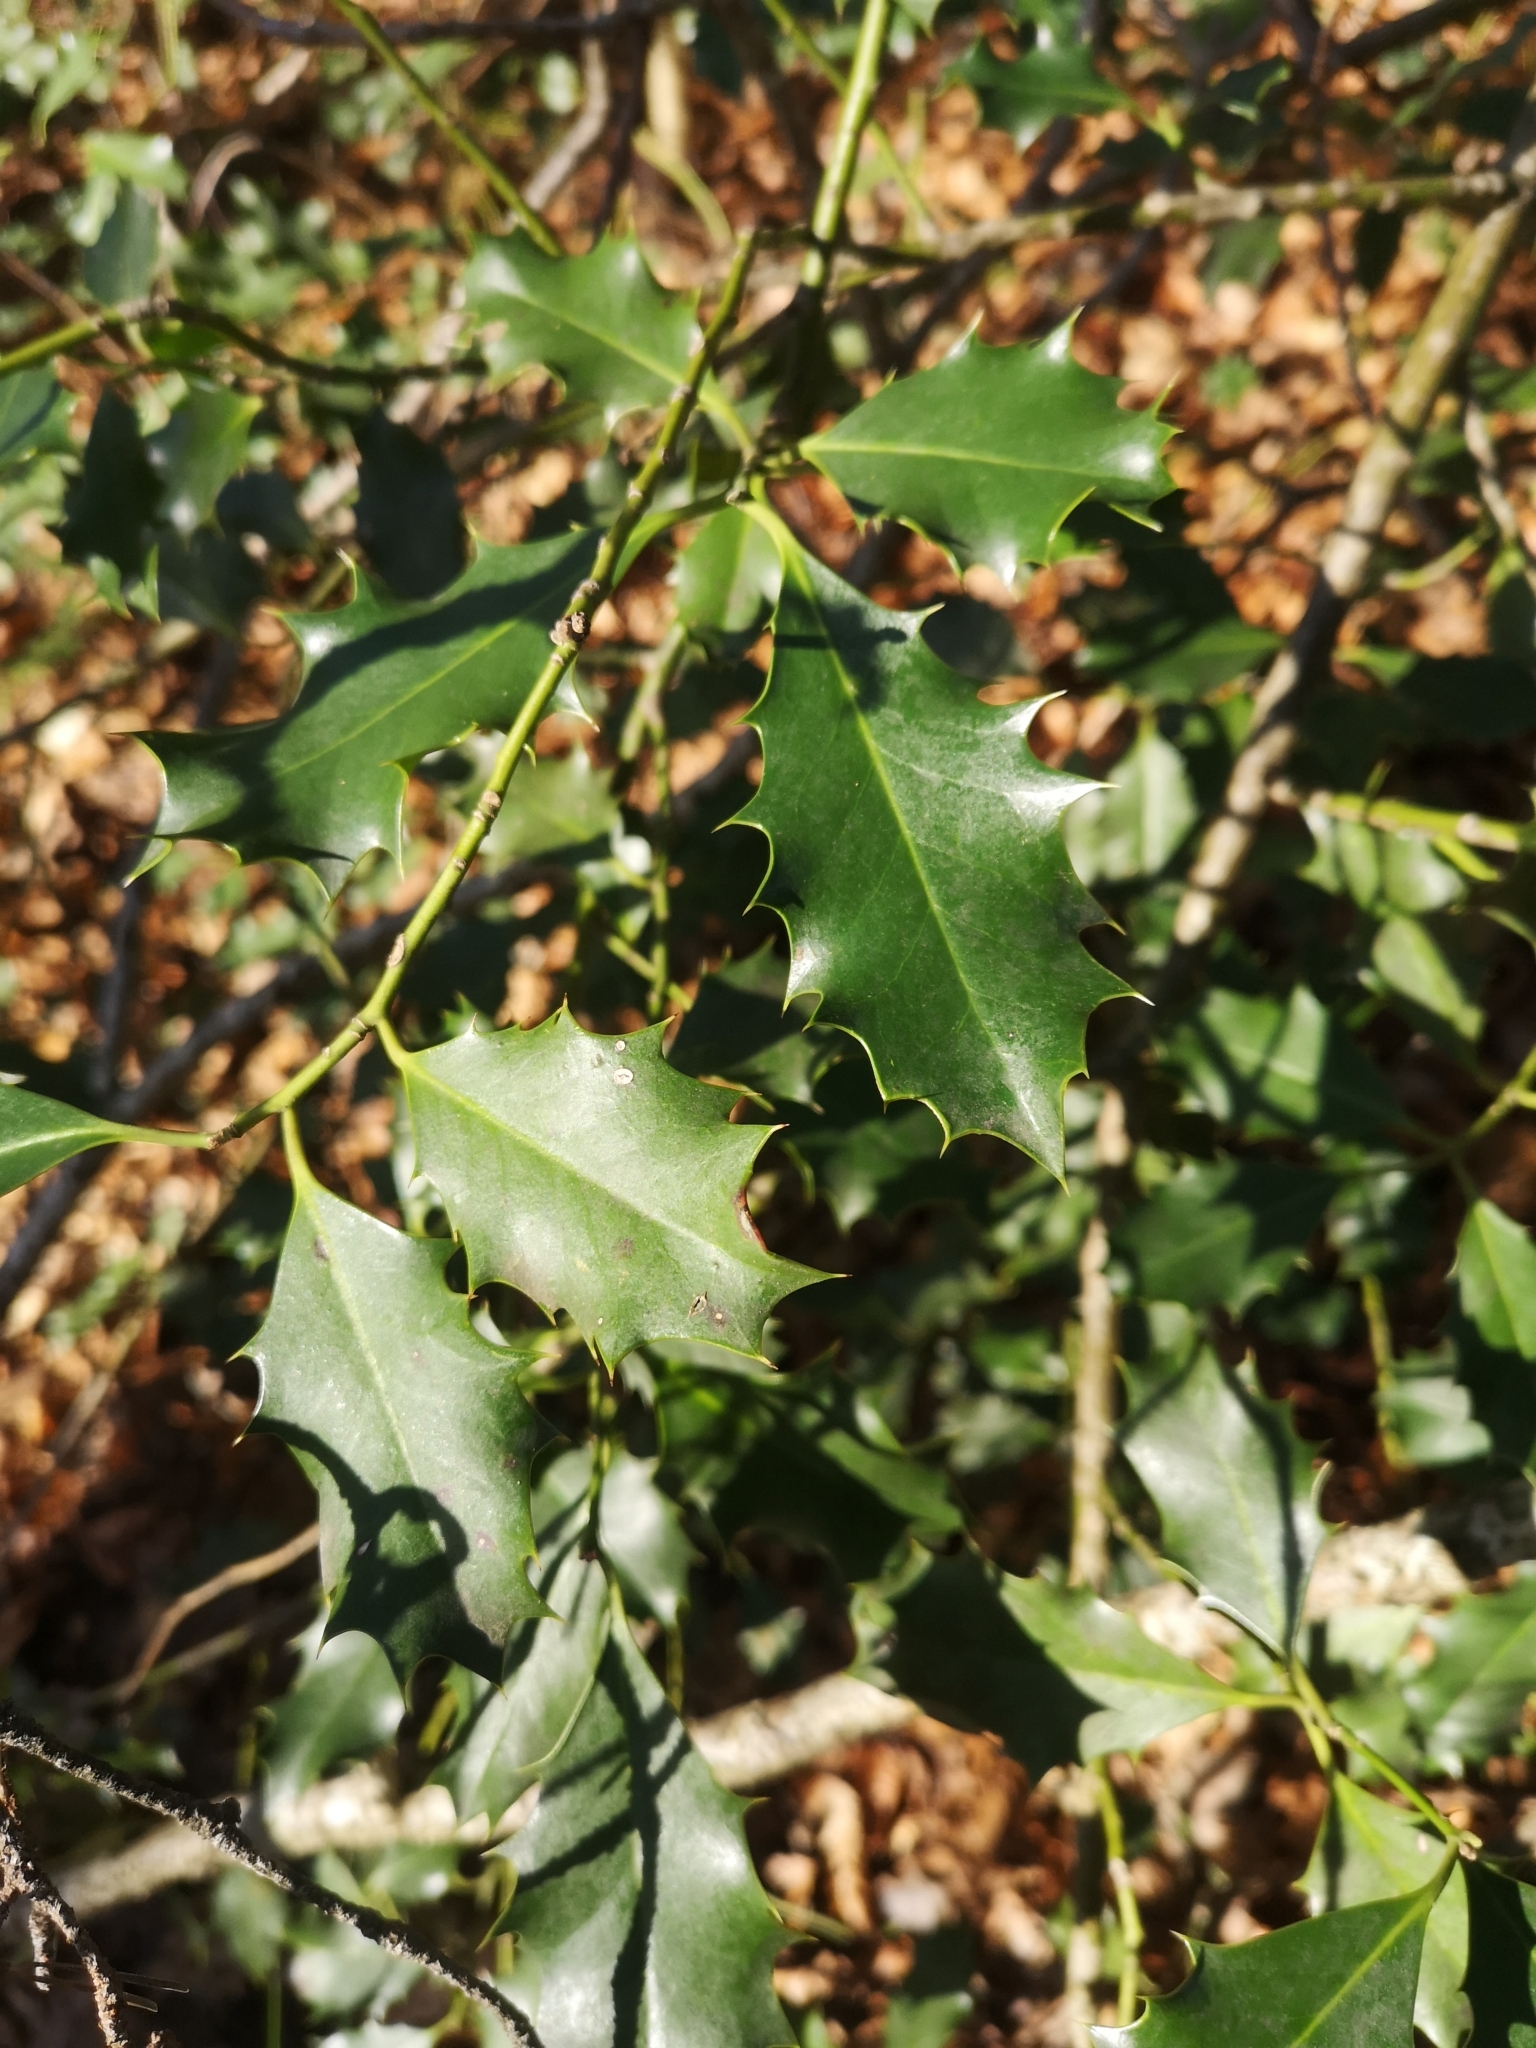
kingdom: Plantae
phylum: Tracheophyta
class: Magnoliopsida
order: Aquifoliales
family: Aquifoliaceae
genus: Ilex
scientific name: Ilex aquifolium
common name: English holly
